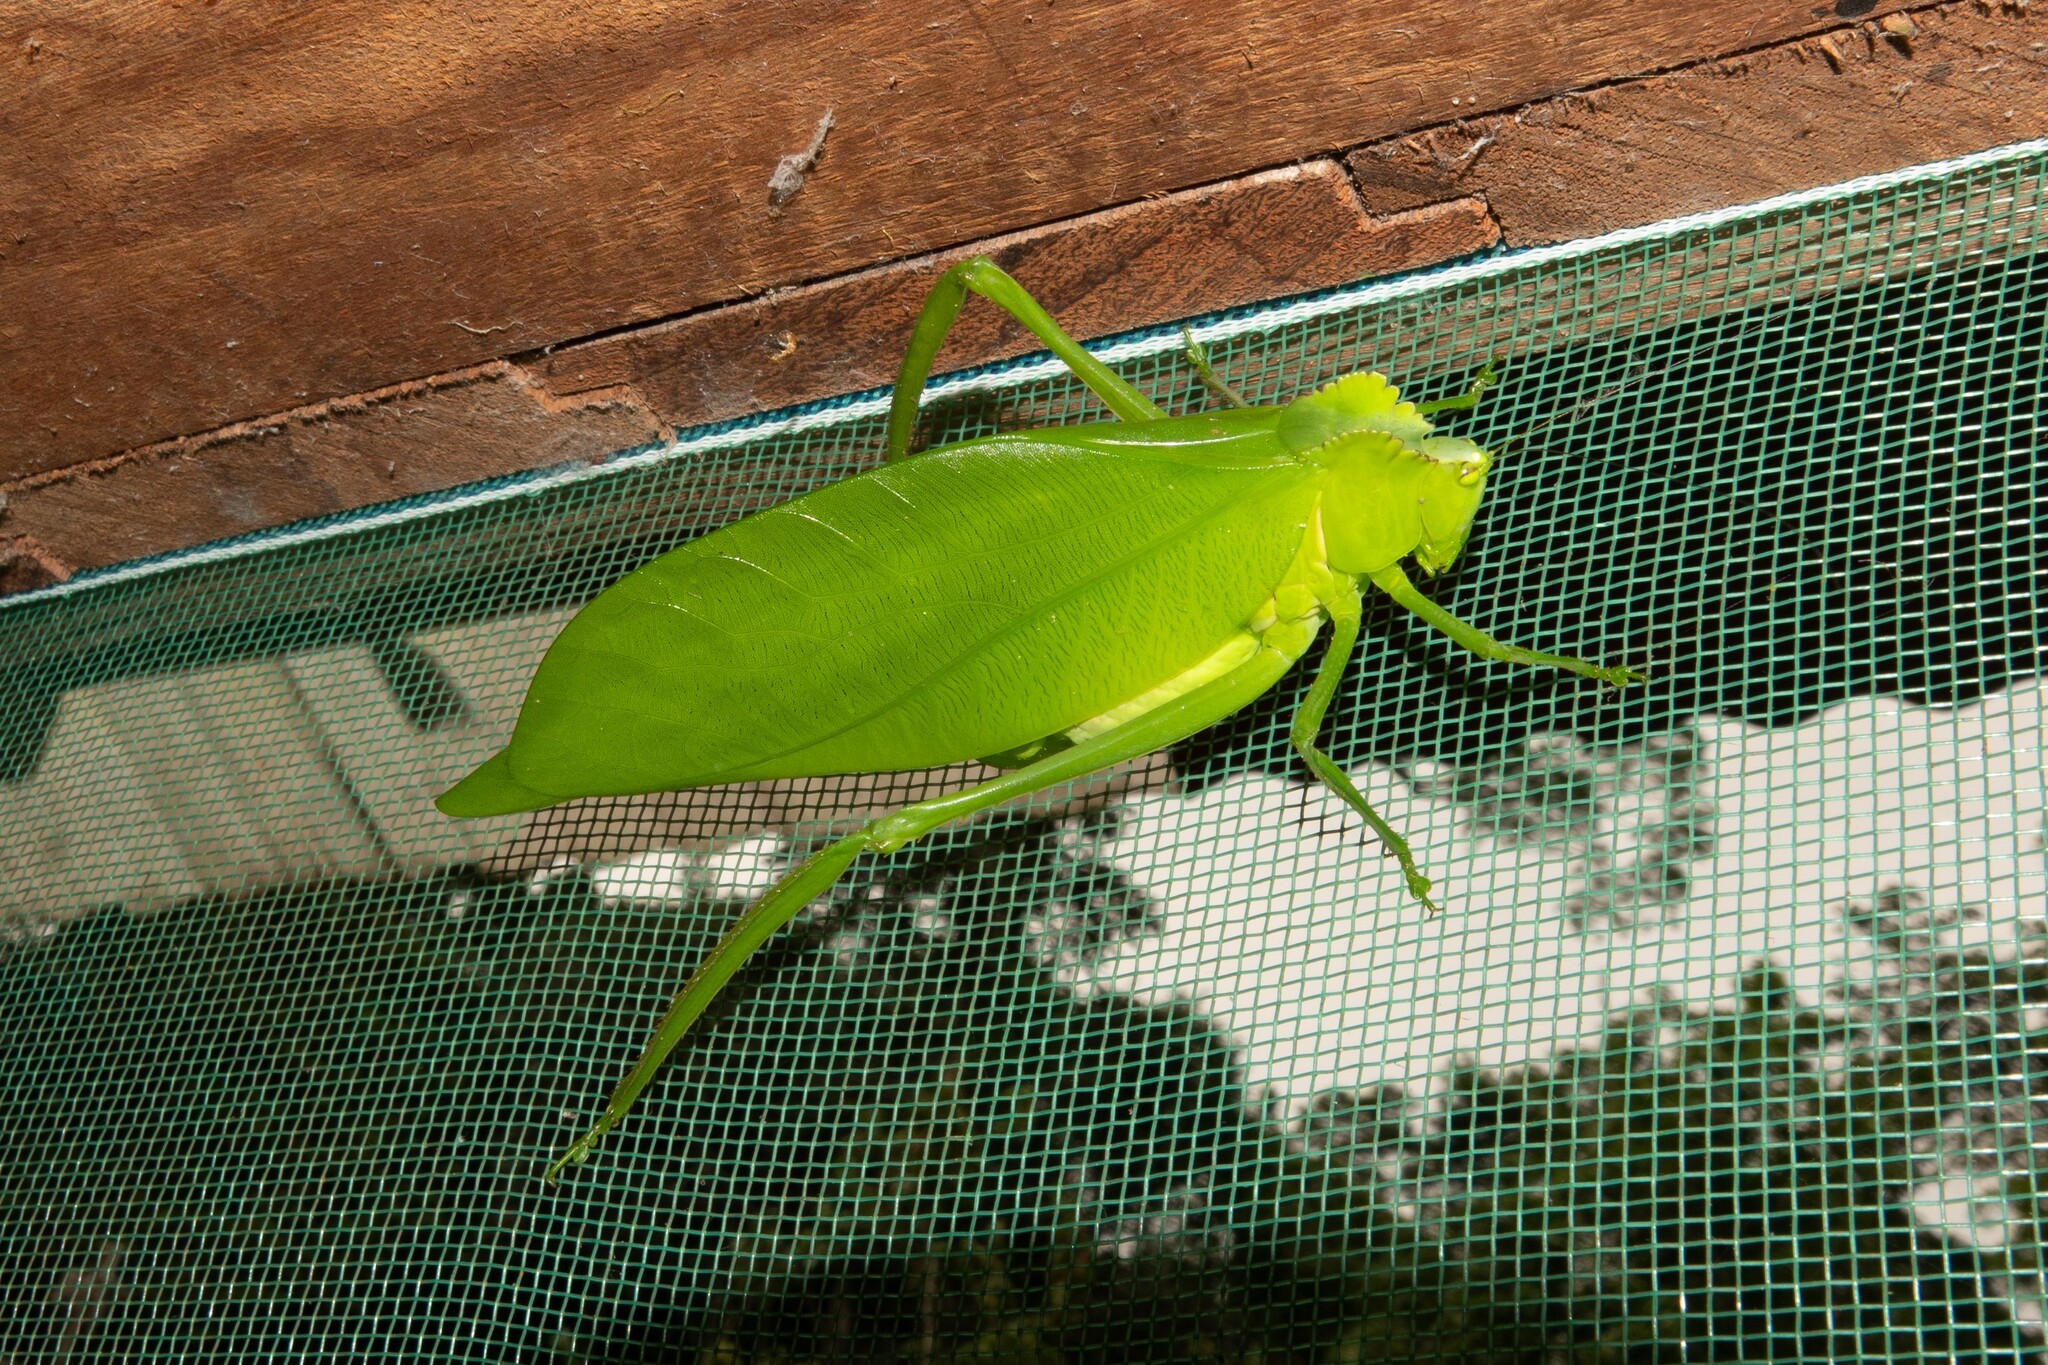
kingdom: Animalia
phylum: Arthropoda
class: Insecta
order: Orthoptera
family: Tettigoniidae
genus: Cnemidophyllum
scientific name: Cnemidophyllum citrifolium
